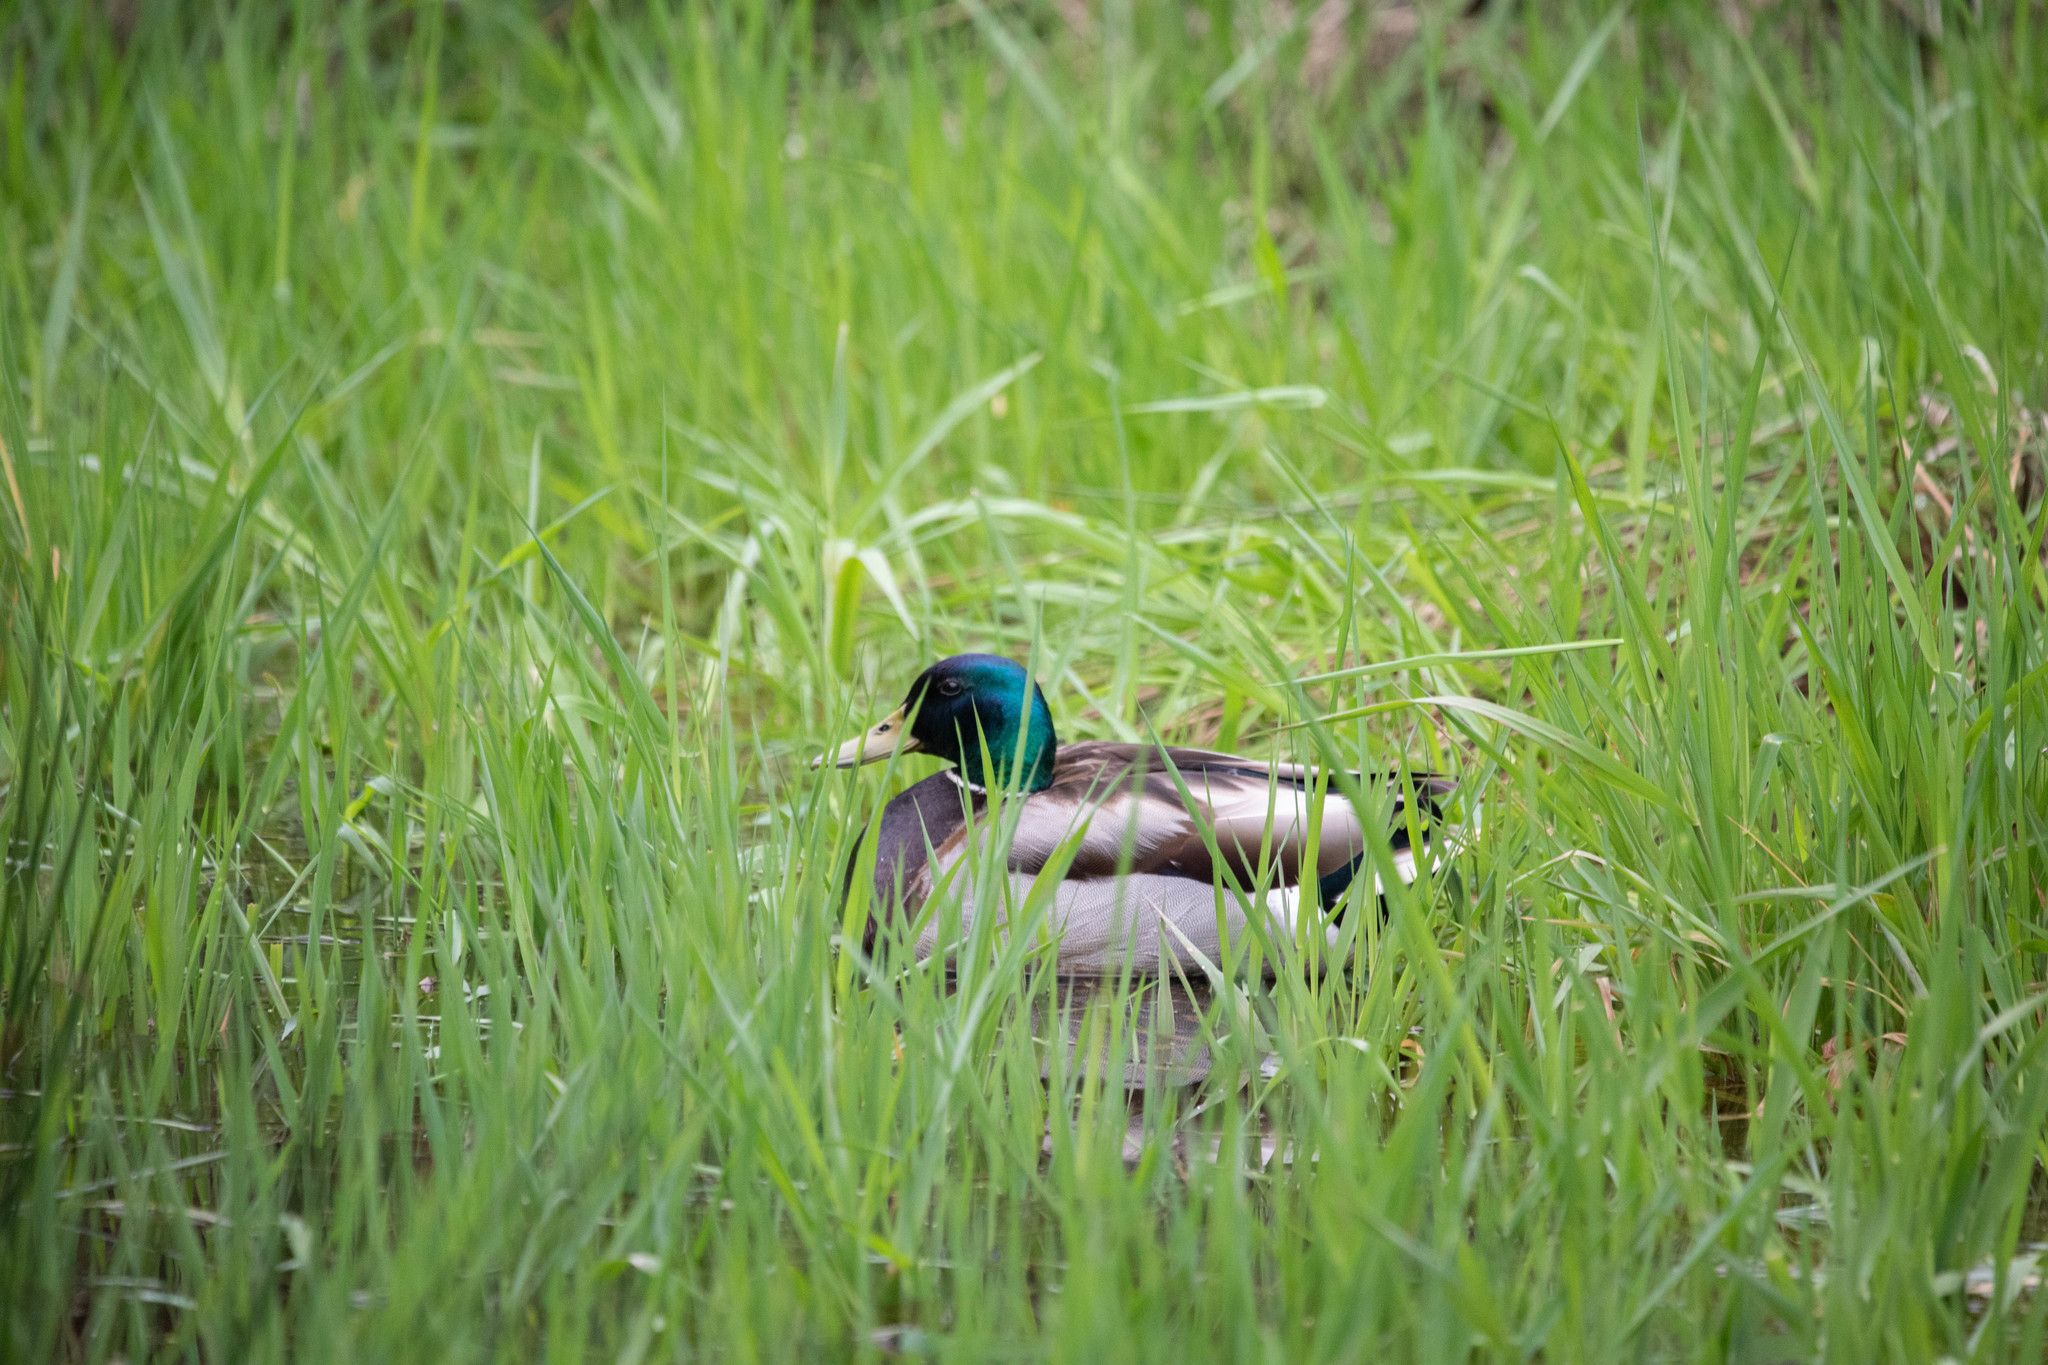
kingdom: Animalia
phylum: Chordata
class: Aves
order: Anseriformes
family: Anatidae
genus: Anas
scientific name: Anas platyrhynchos
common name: Mallard
